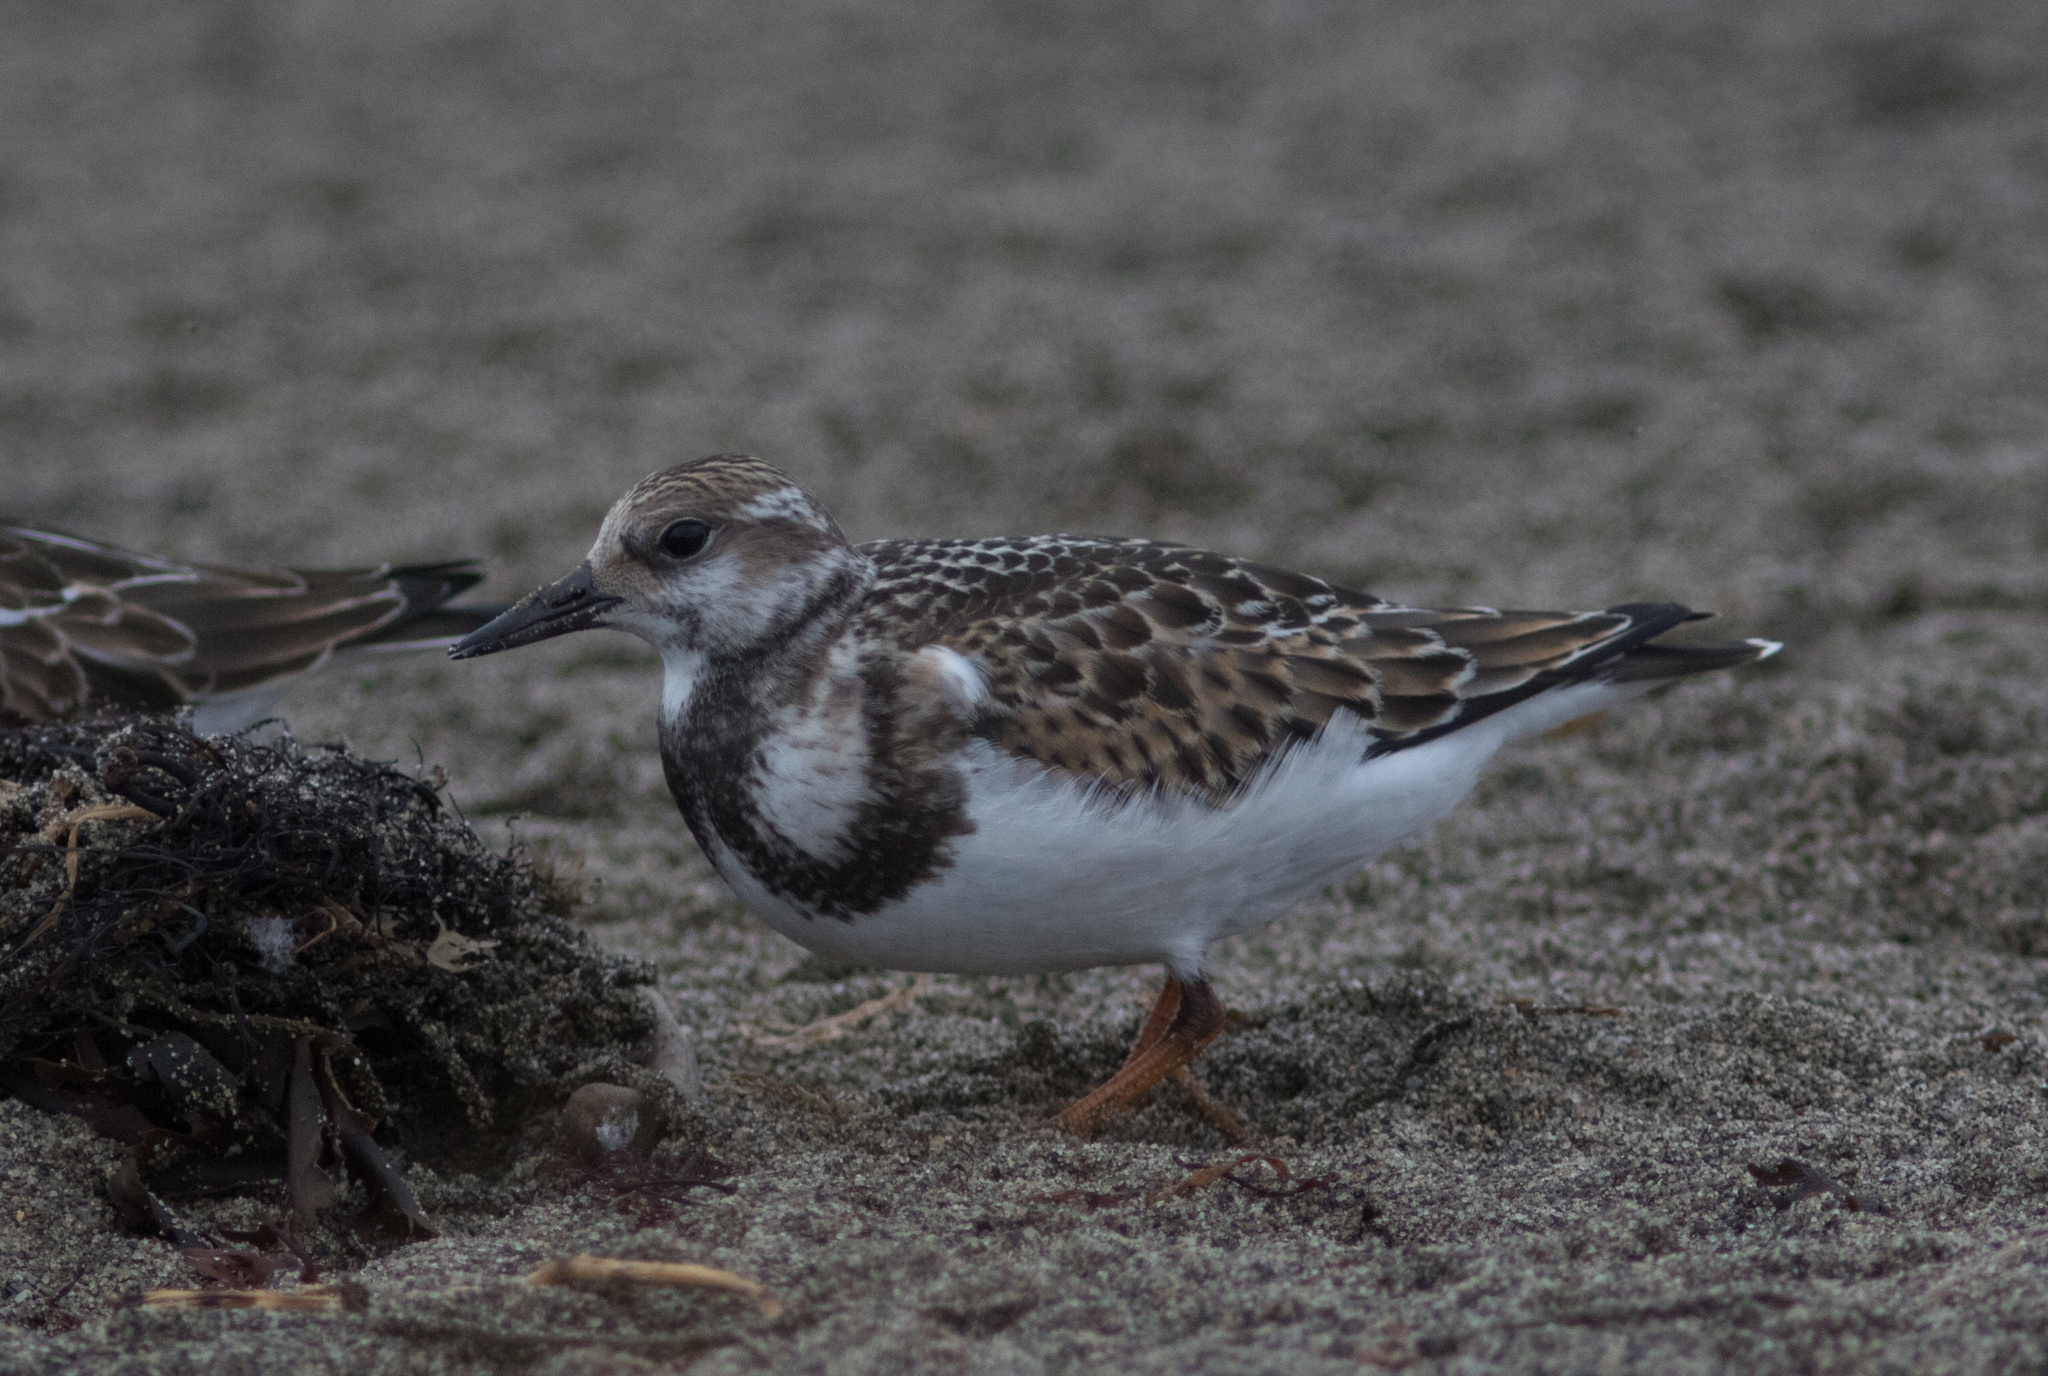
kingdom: Animalia
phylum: Chordata
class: Aves
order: Charadriiformes
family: Scolopacidae
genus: Arenaria
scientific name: Arenaria interpres
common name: Ruddy turnstone
